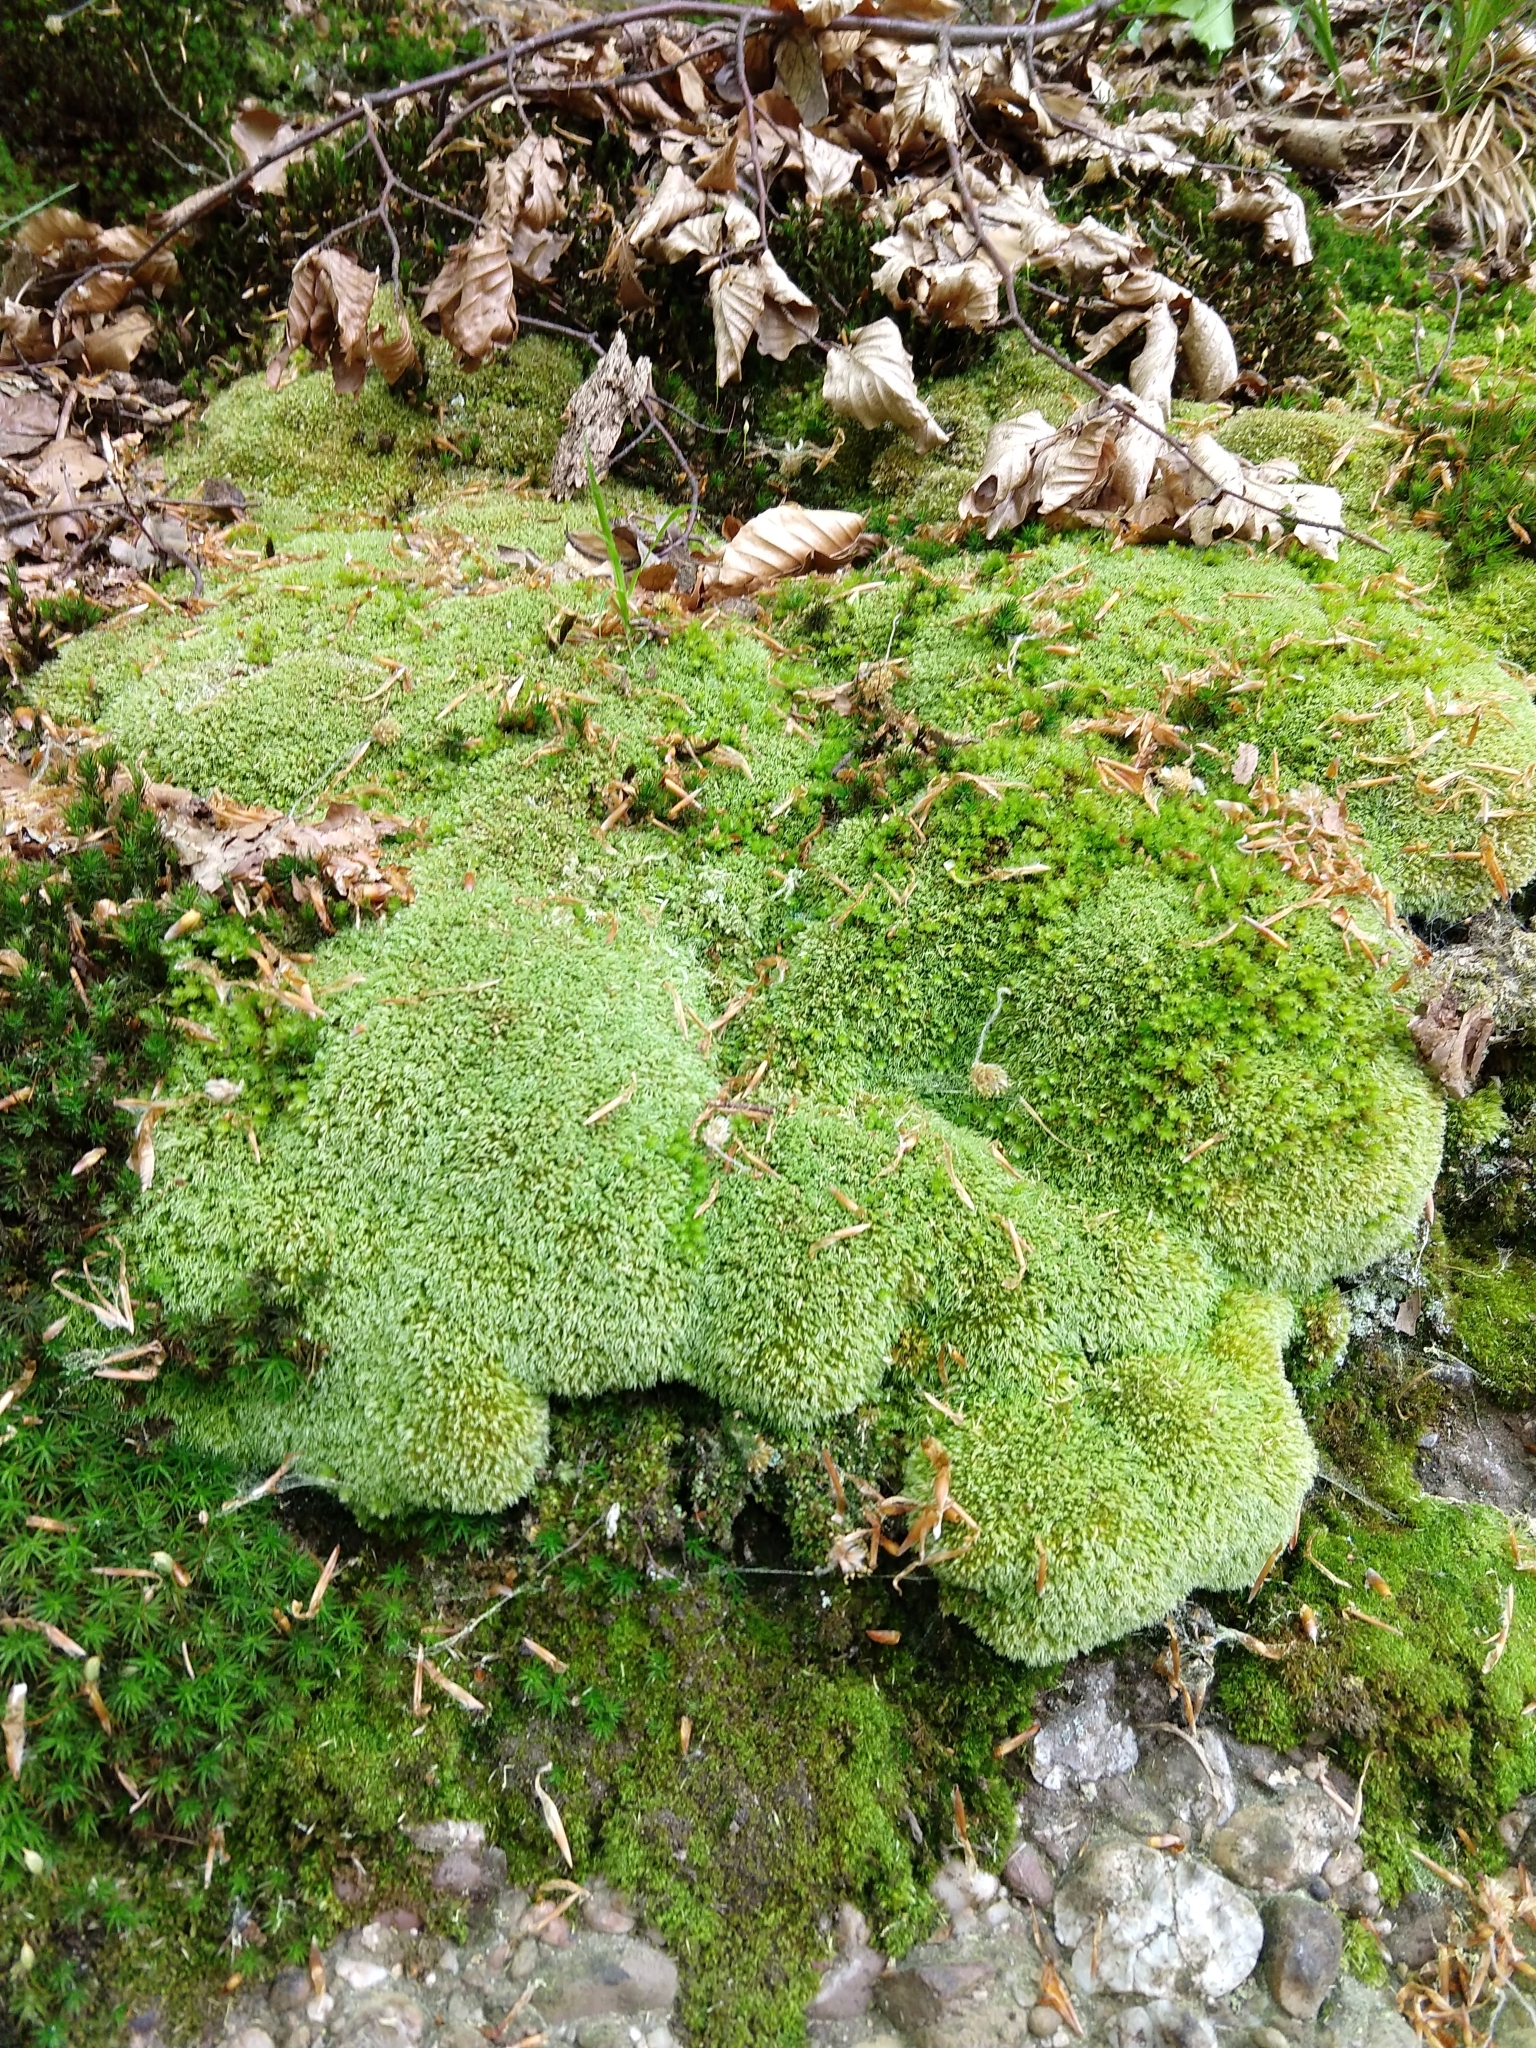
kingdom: Plantae
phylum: Bryophyta
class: Bryopsida
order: Dicranales
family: Leucobryaceae
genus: Leucobryum
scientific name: Leucobryum glaucum
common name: Large white-moss
